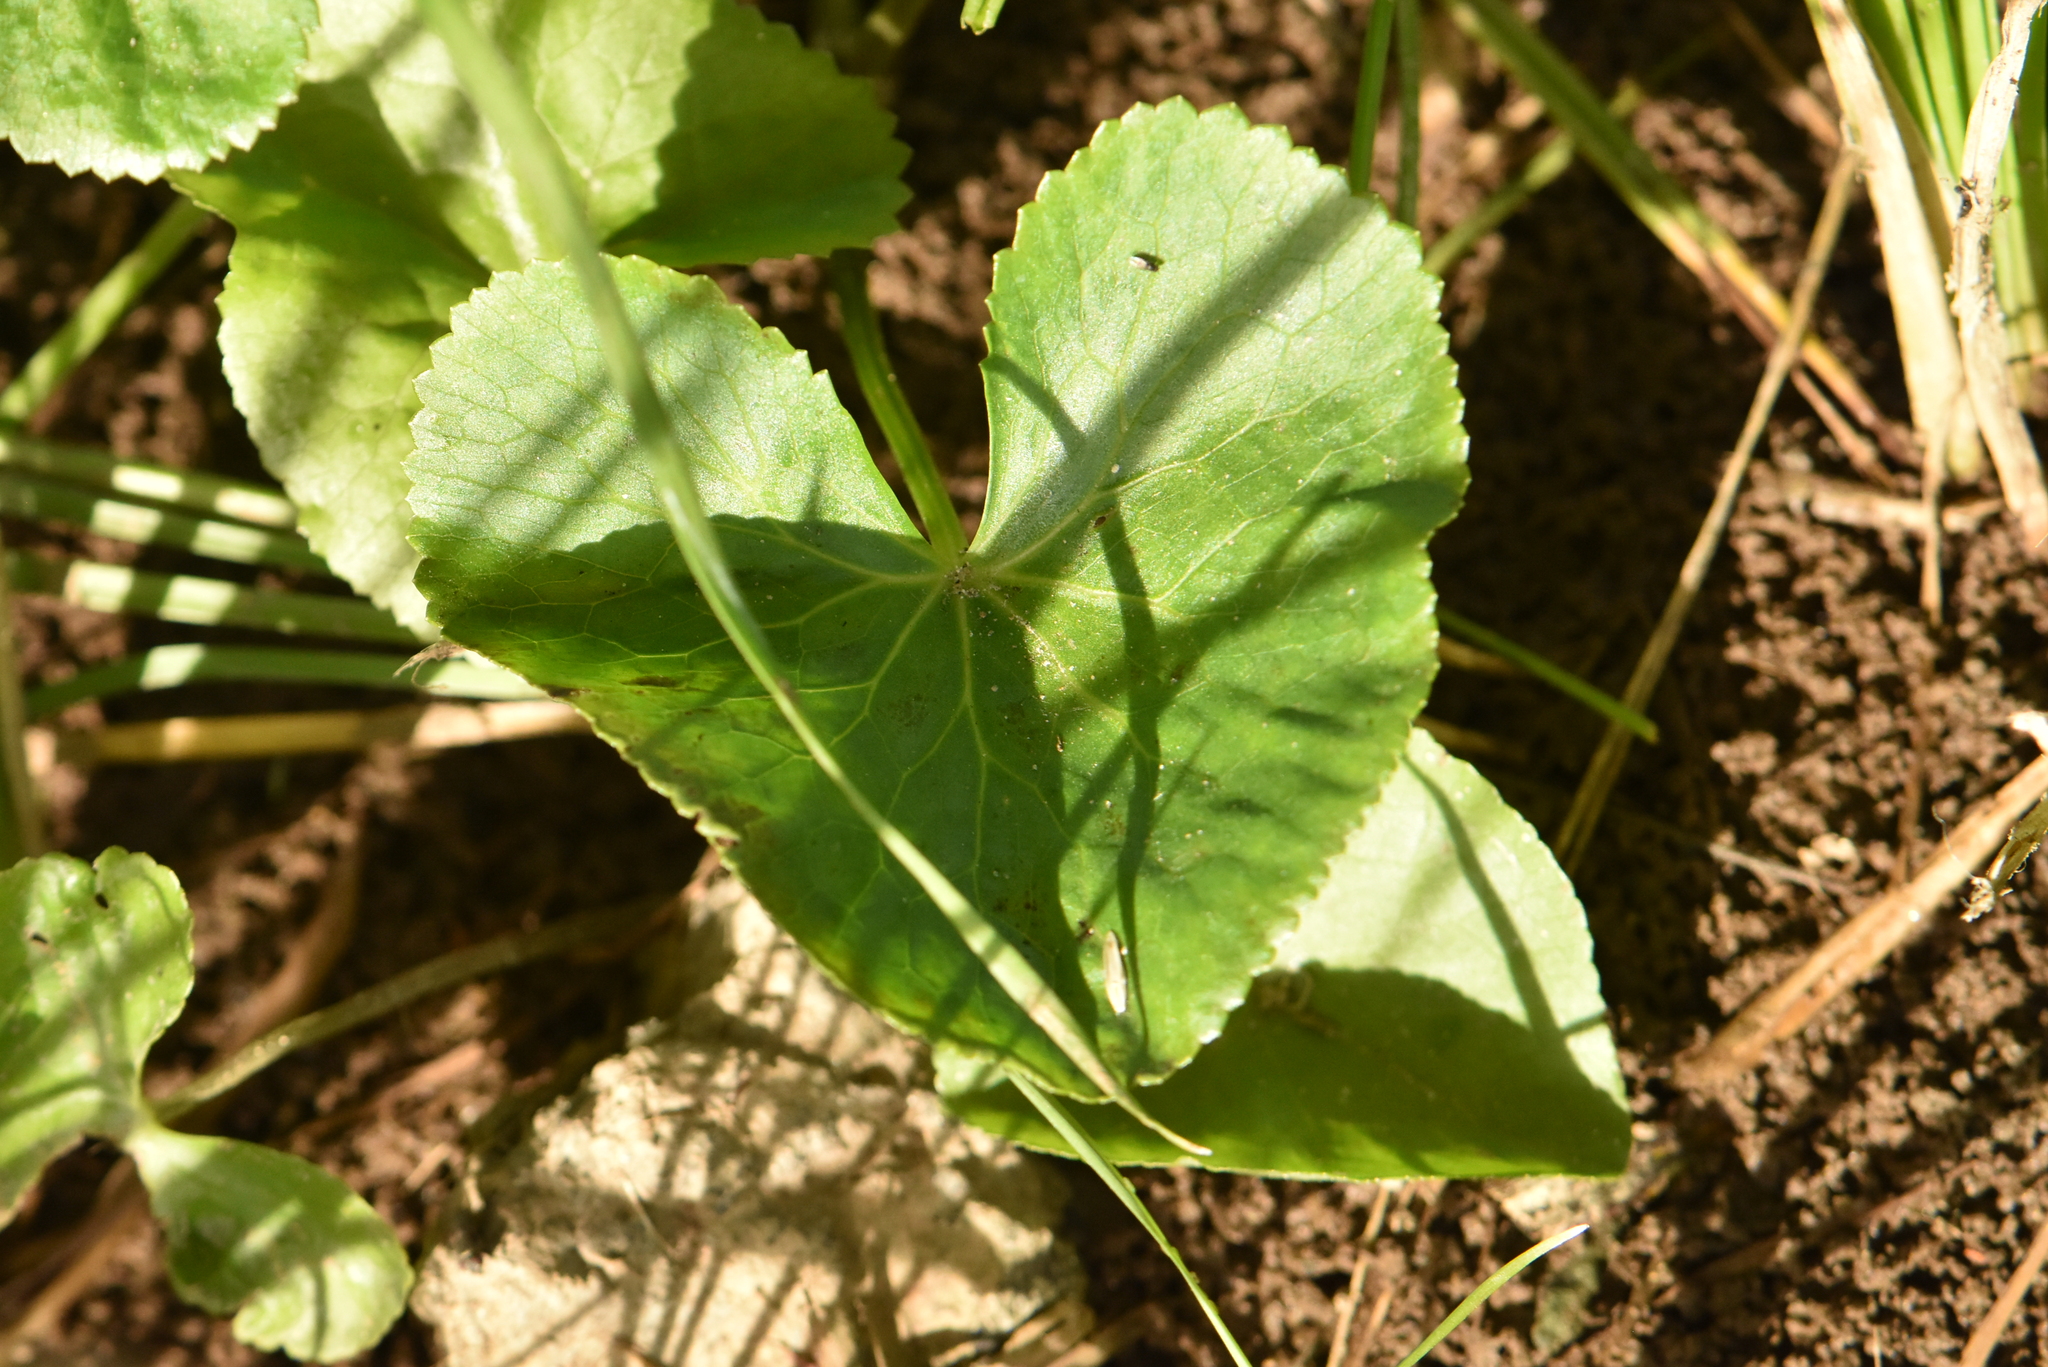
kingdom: Plantae
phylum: Tracheophyta
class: Magnoliopsida
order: Ranunculales
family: Ranunculaceae
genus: Caltha
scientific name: Caltha palustris
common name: Marsh marigold
